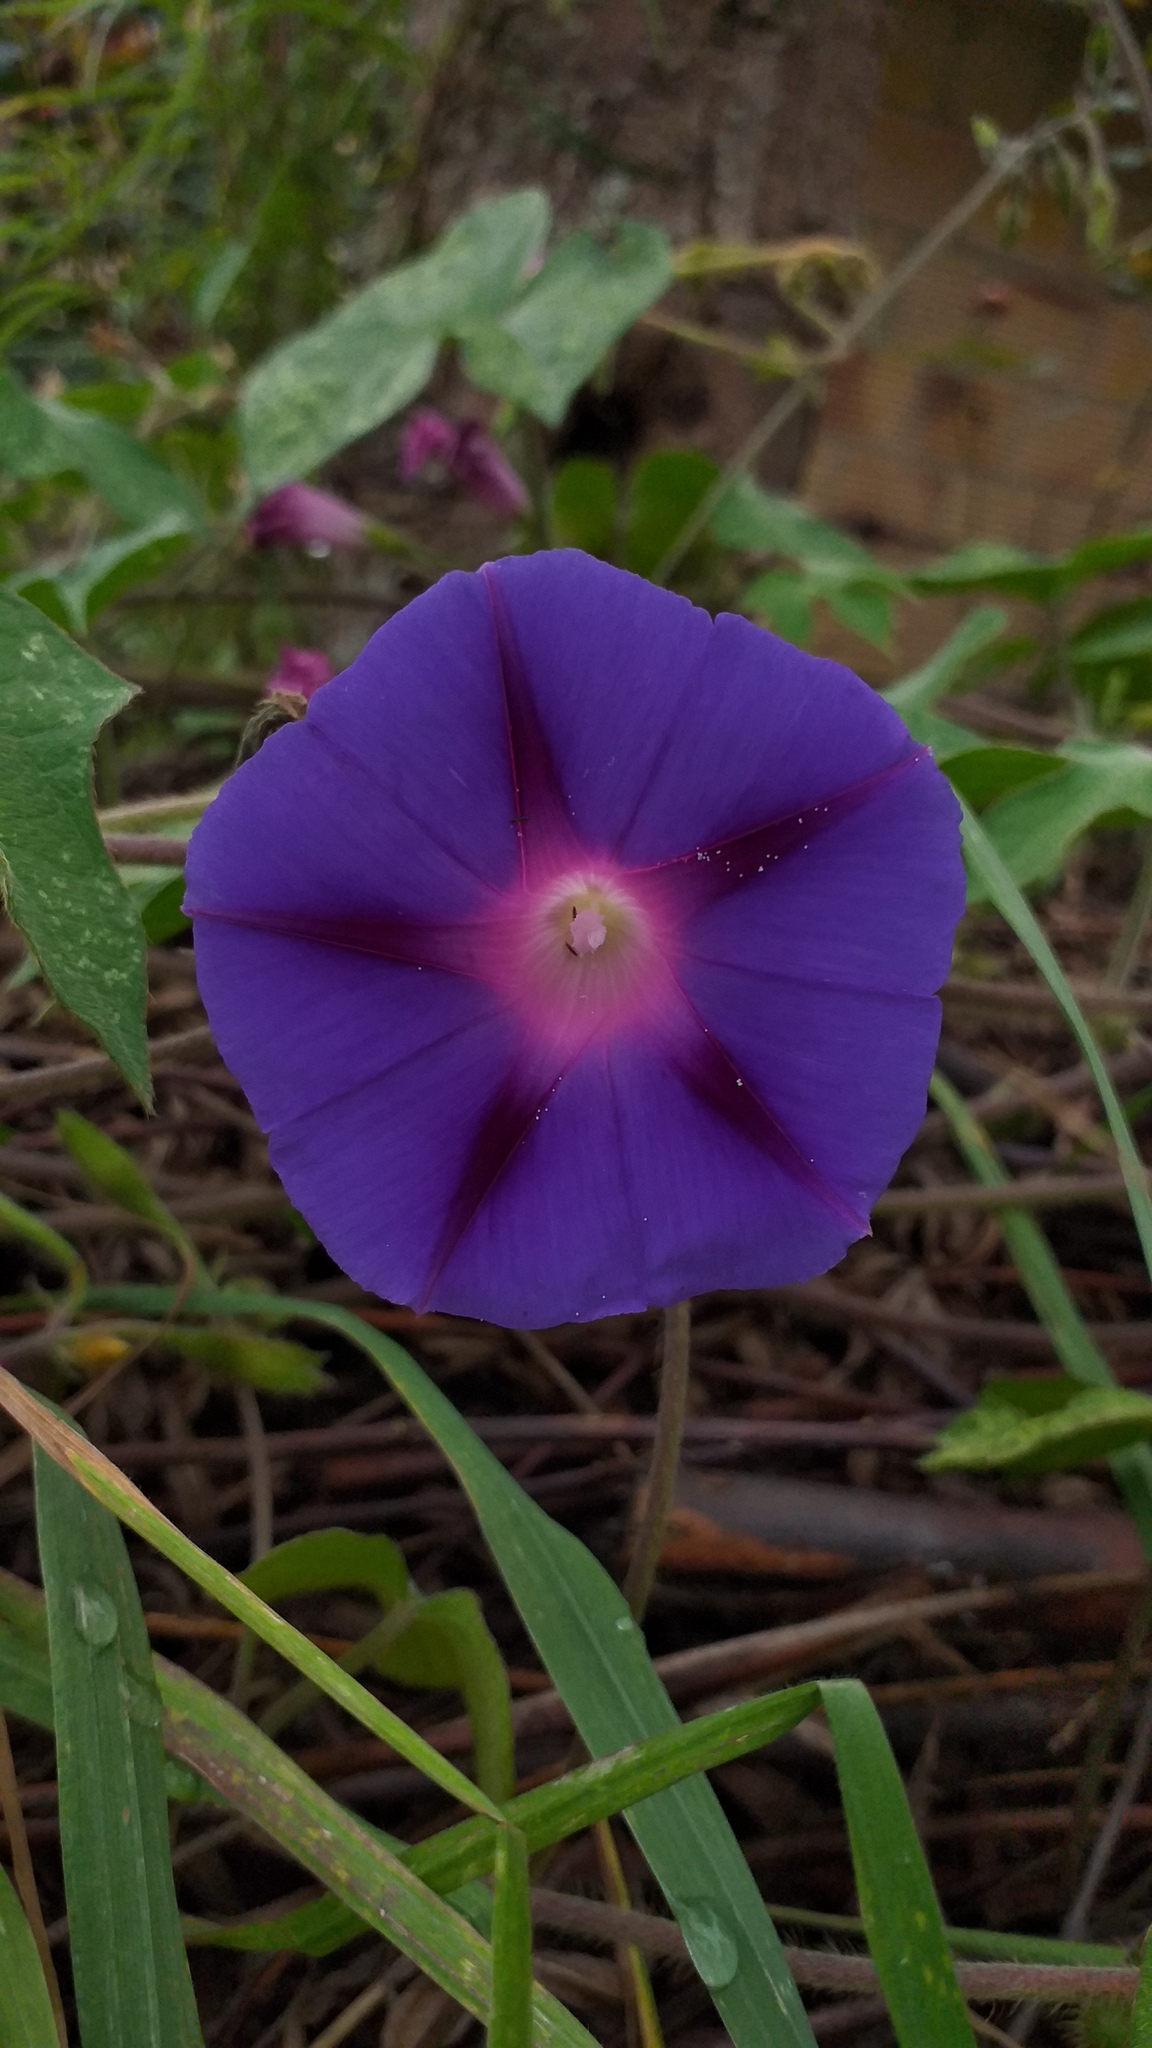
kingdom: Plantae
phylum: Tracheophyta
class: Magnoliopsida
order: Solanales
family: Convolvulaceae
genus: Ipomoea
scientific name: Ipomoea purpurea
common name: Common morning-glory
